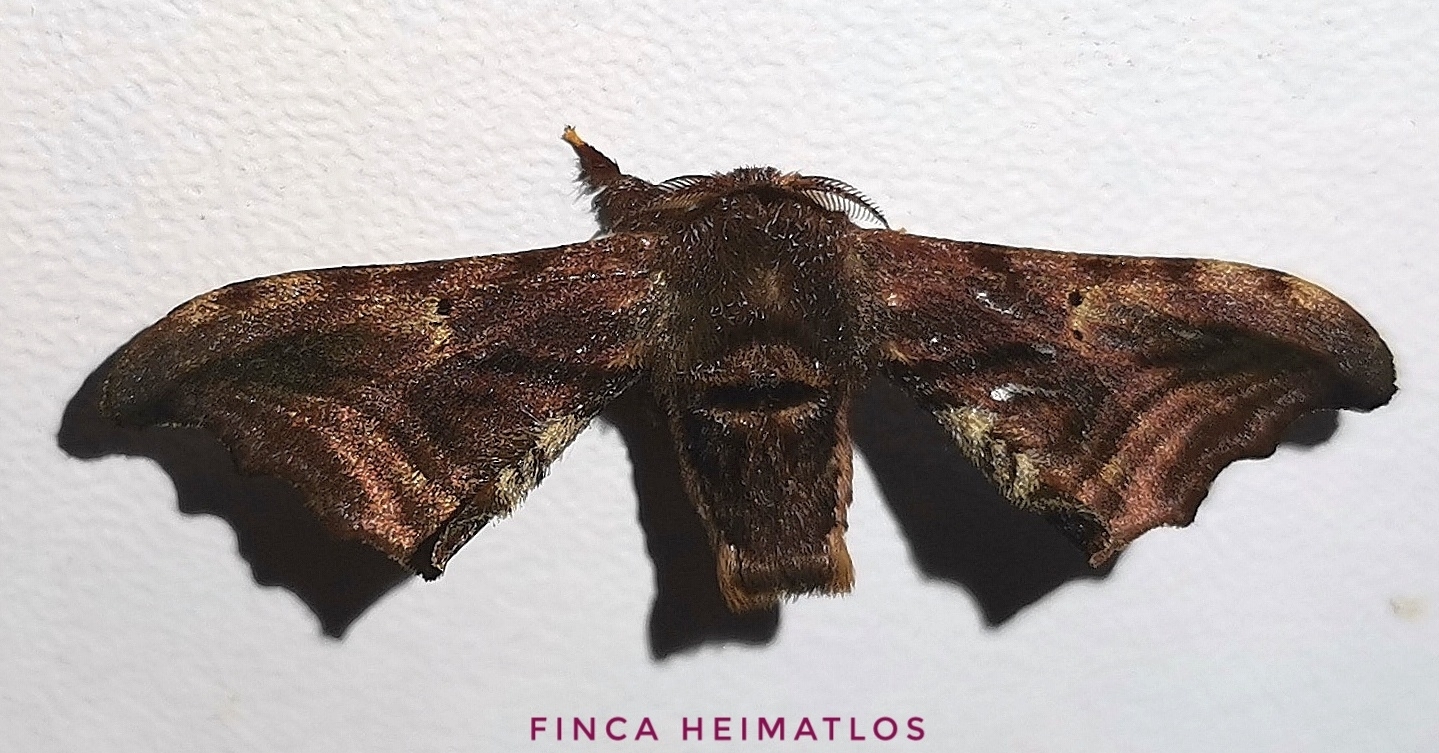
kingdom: Animalia
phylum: Arthropoda
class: Insecta
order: Lepidoptera
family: Bombycidae
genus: Quentalia
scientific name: Quentalia excisa
